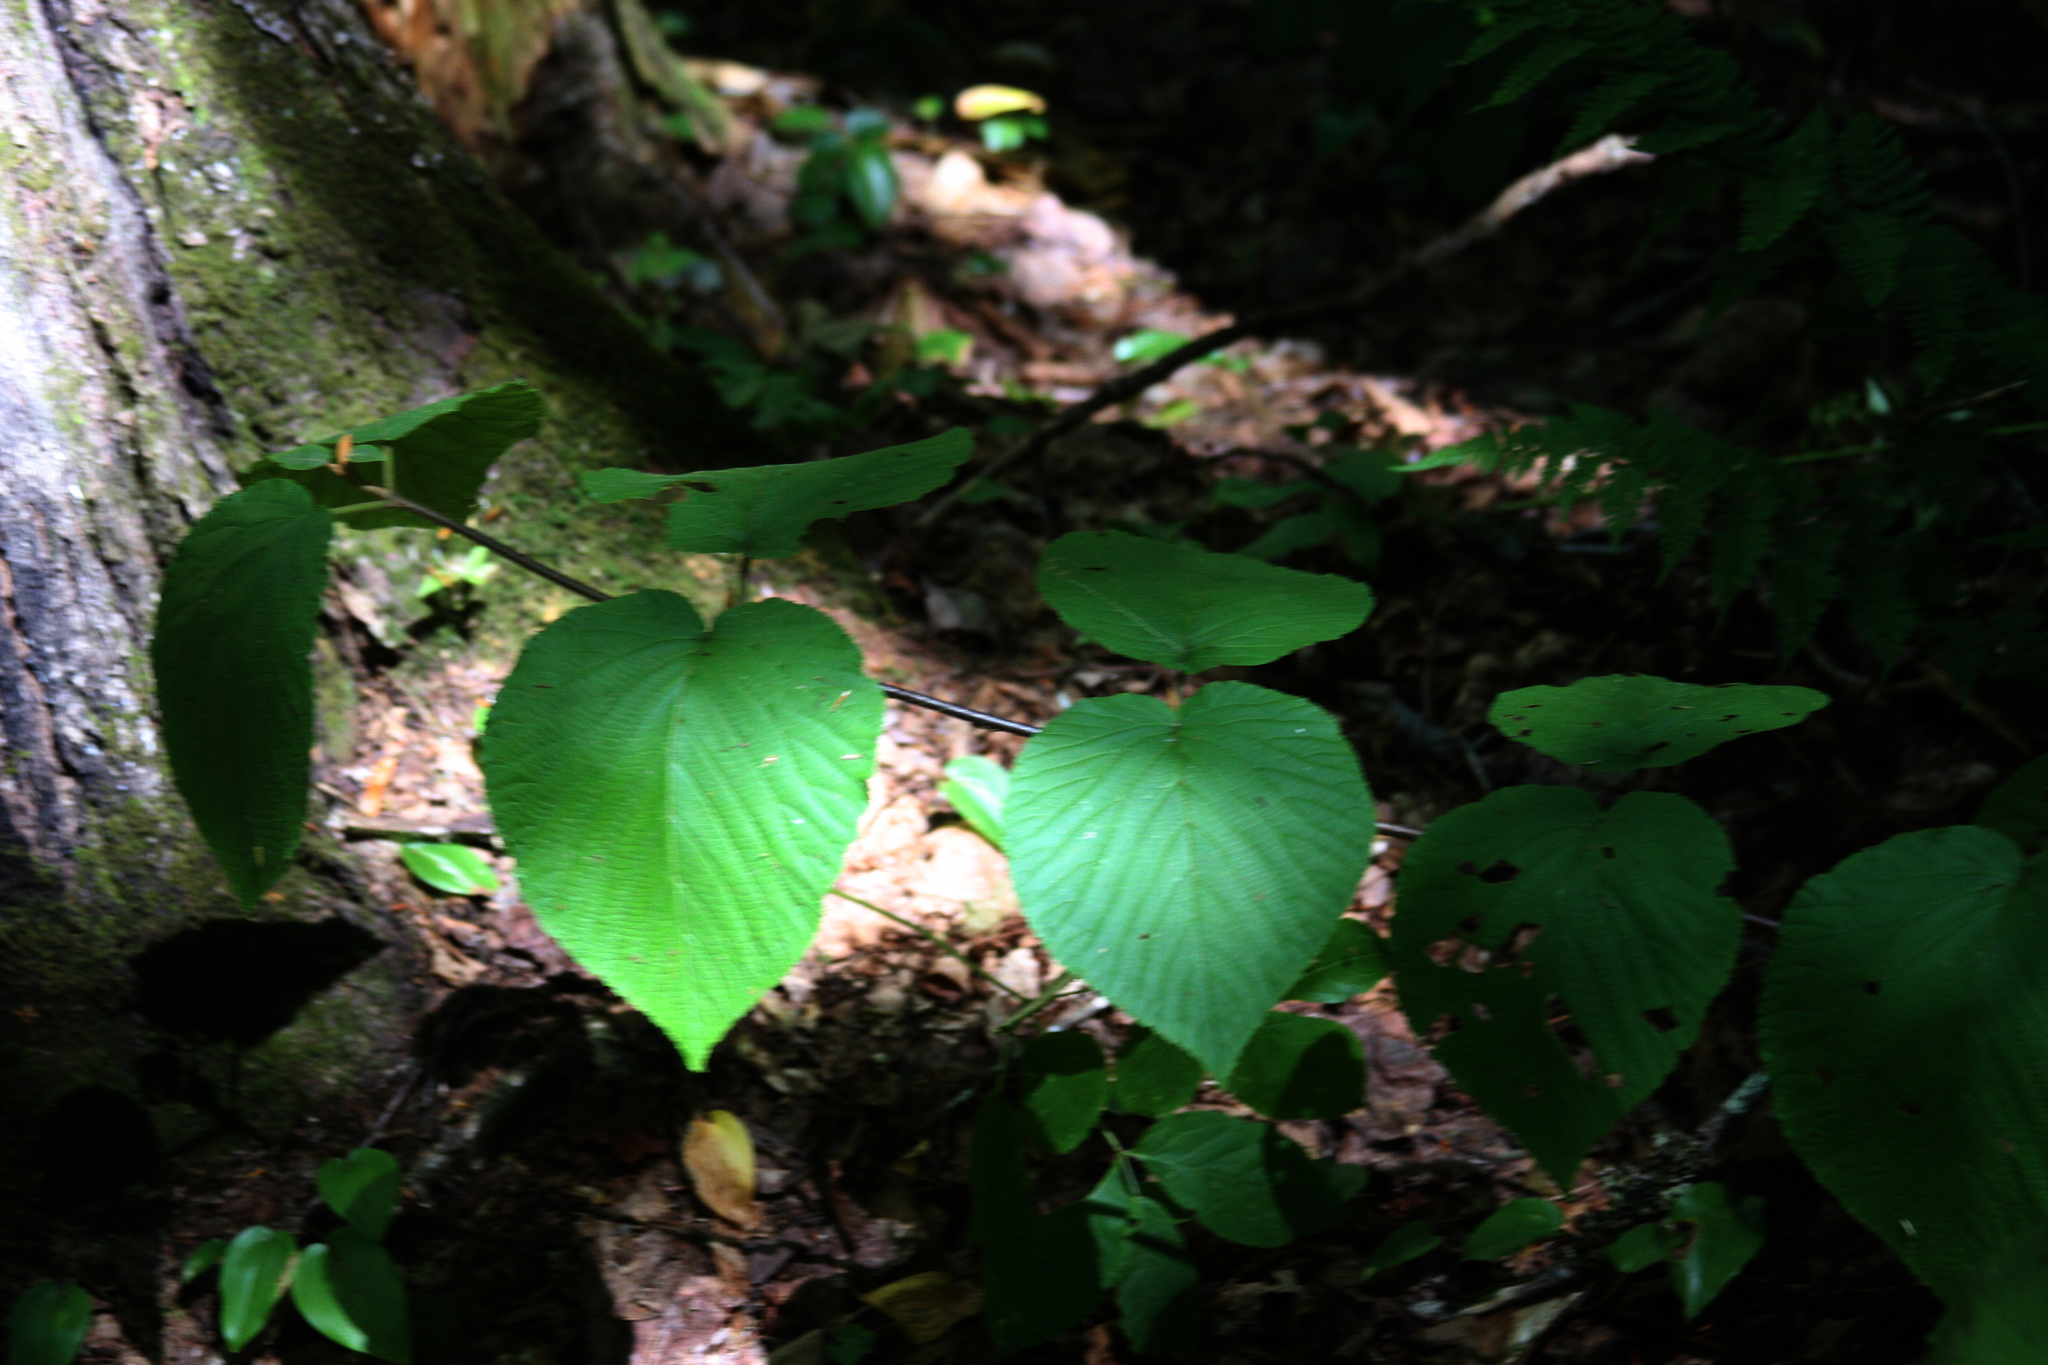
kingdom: Plantae
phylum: Tracheophyta
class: Magnoliopsida
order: Dipsacales
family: Viburnaceae
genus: Viburnum
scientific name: Viburnum lantanoides
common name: Hobblebush
